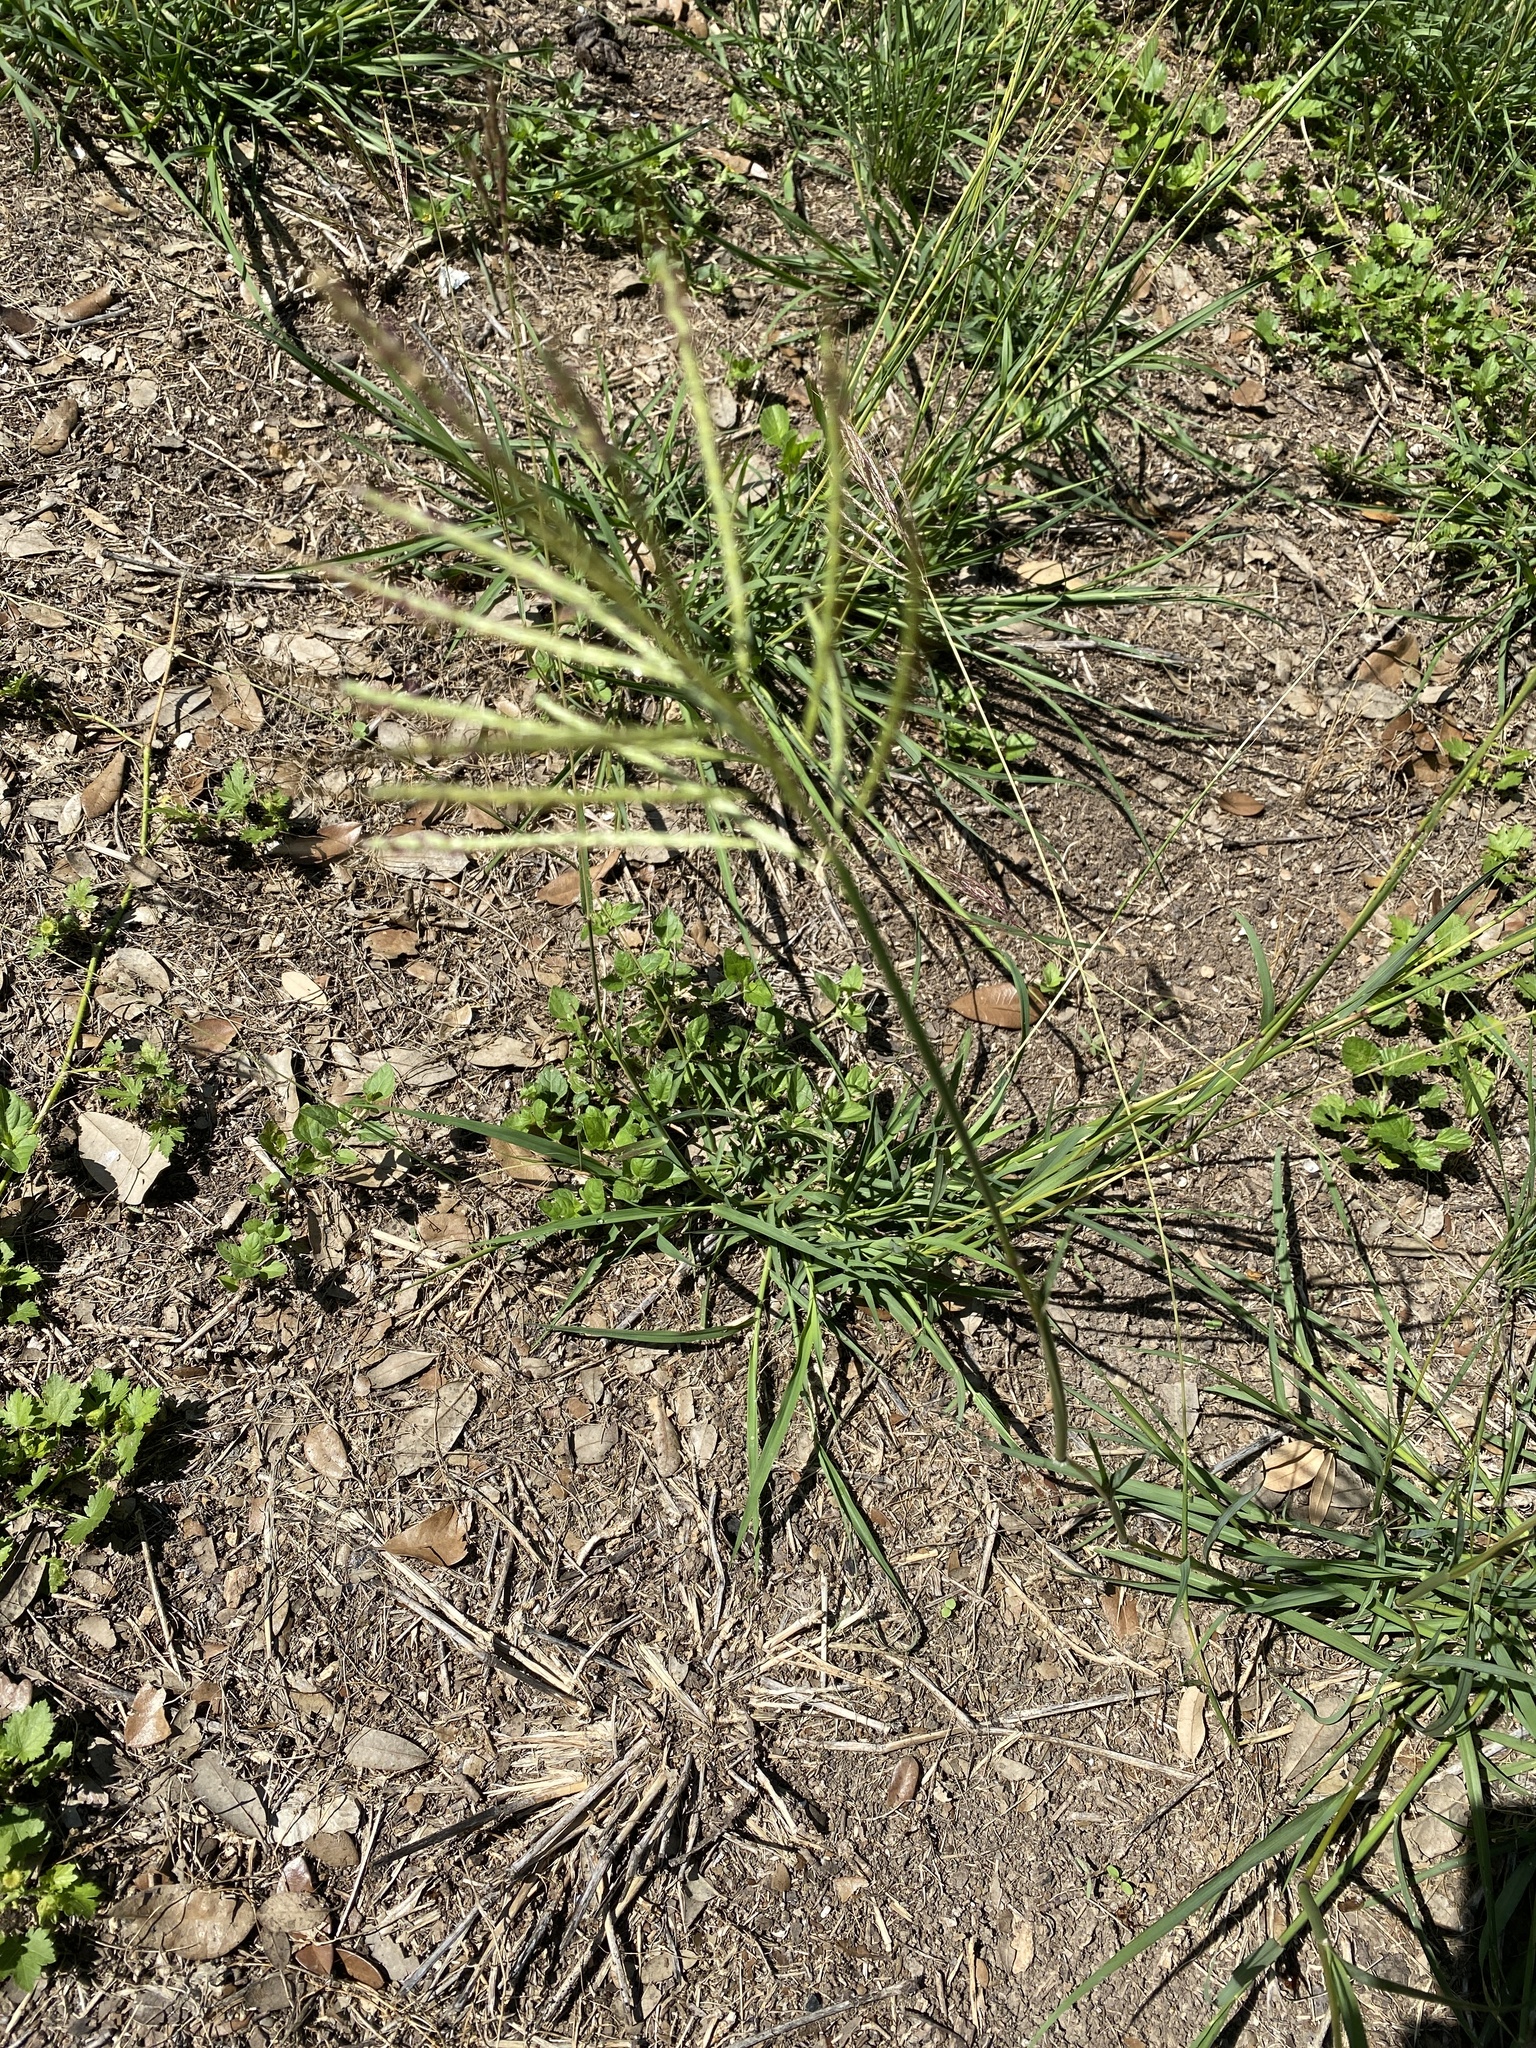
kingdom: Plantae
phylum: Tracheophyta
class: Liliopsida
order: Poales
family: Poaceae
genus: Bothriochloa
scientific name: Bothriochloa ischaemum
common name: Yellow bluestem
